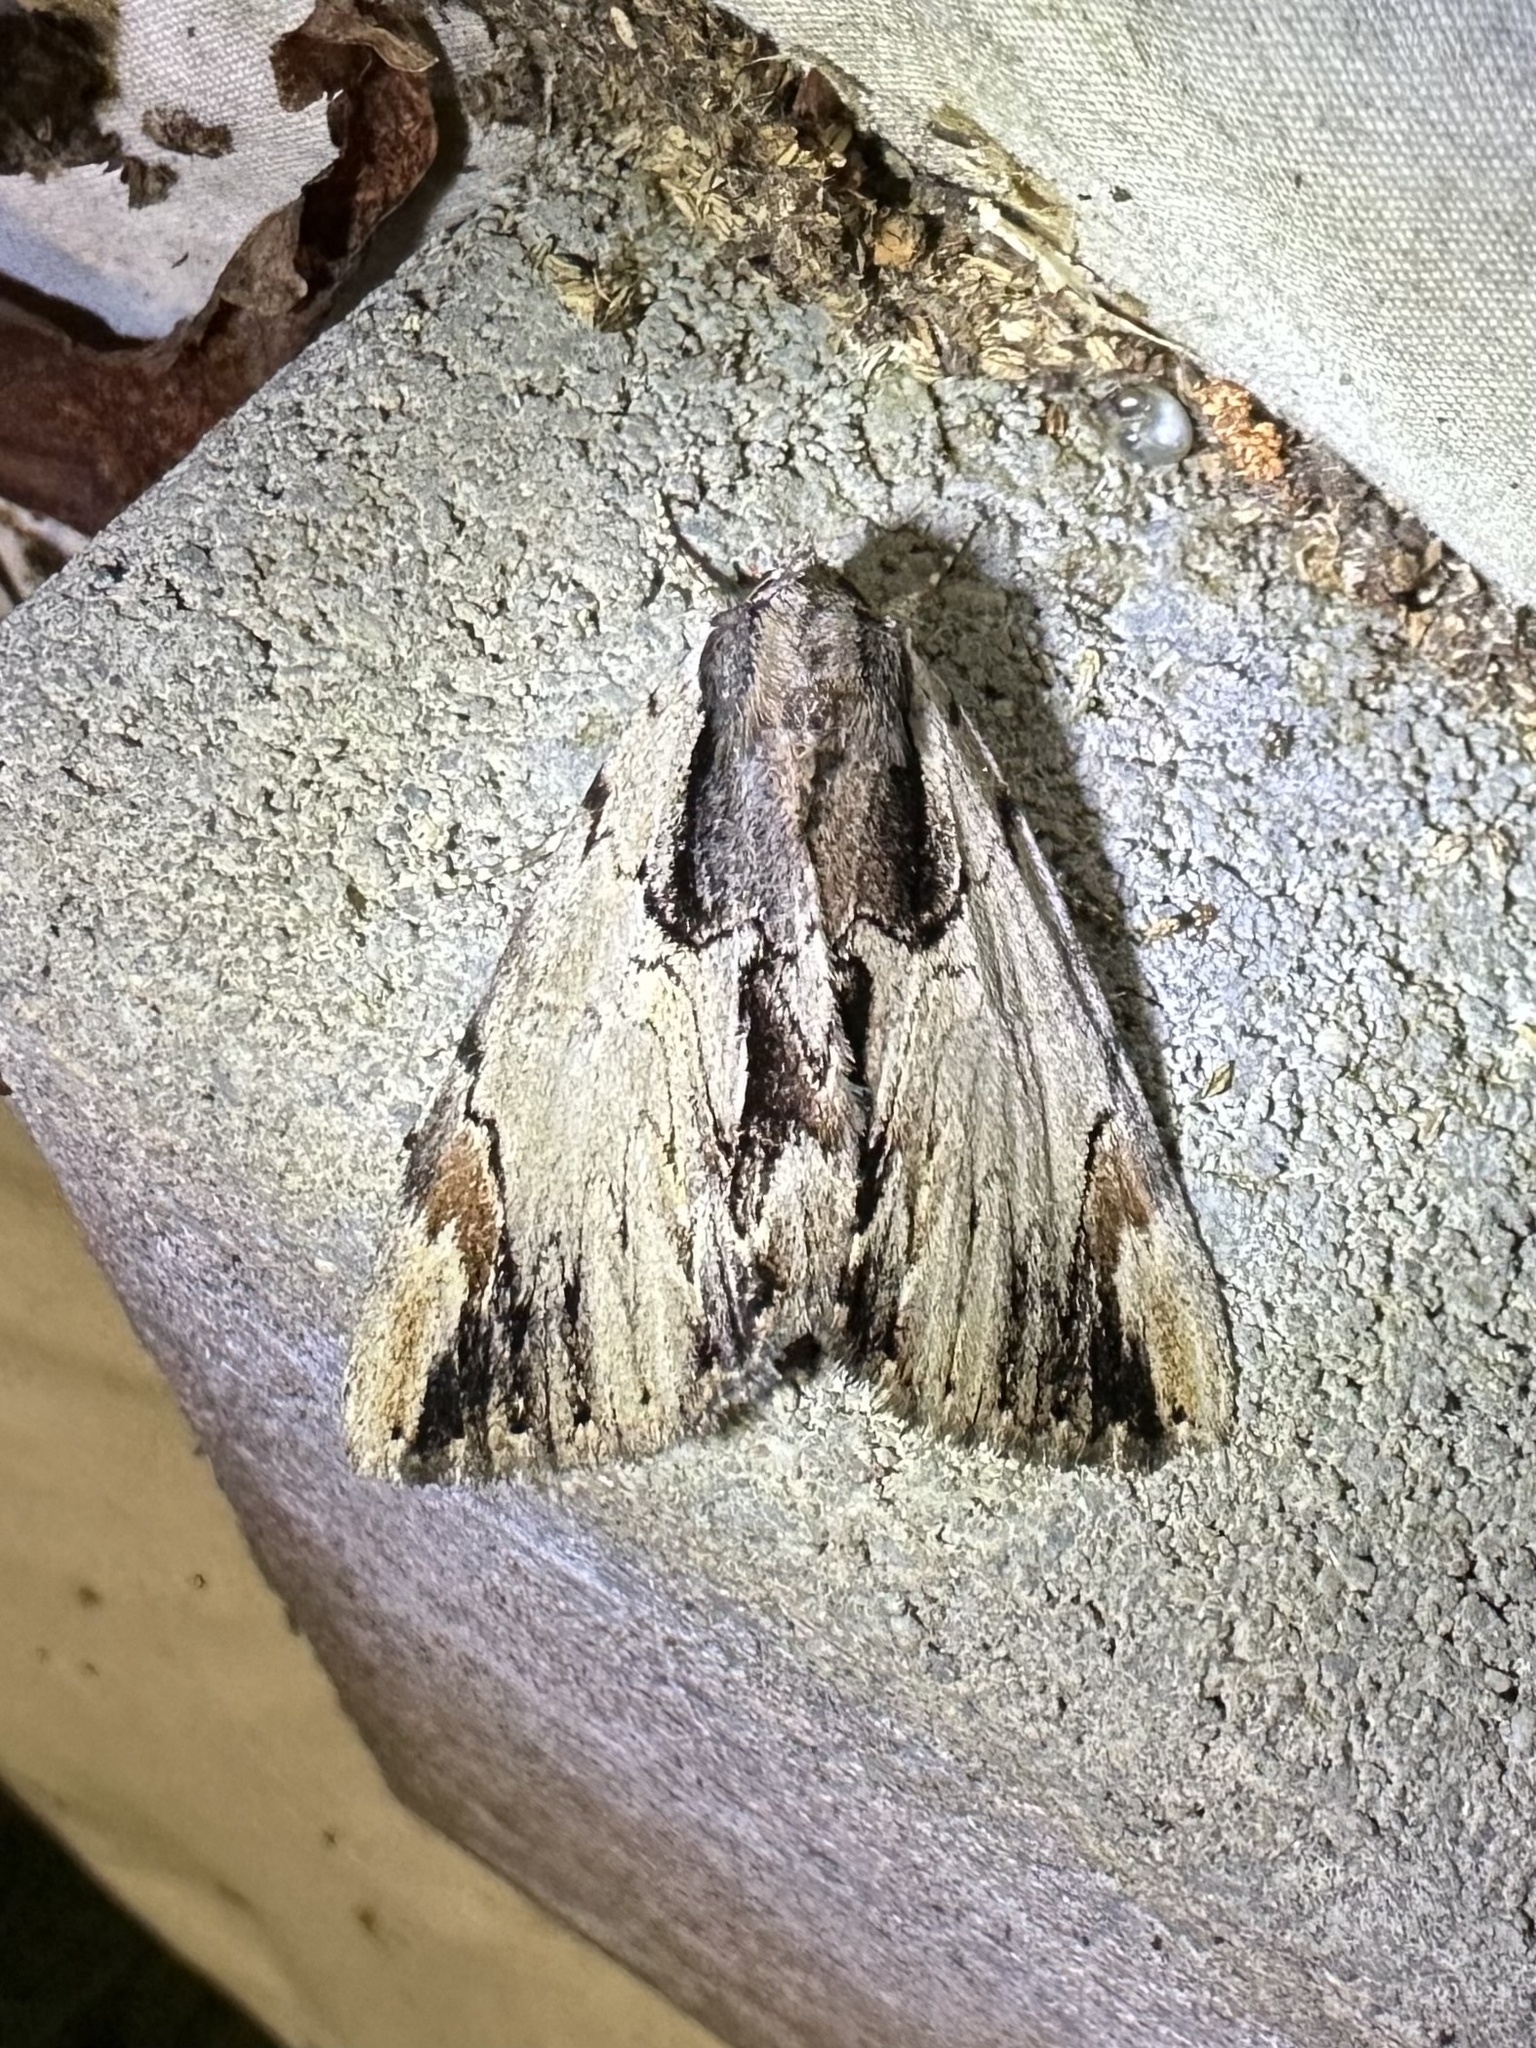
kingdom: Animalia
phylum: Arthropoda
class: Insecta
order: Lepidoptera
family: Erebidae
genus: Catocala
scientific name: Catocala ultronia
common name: Ultronia underwing
